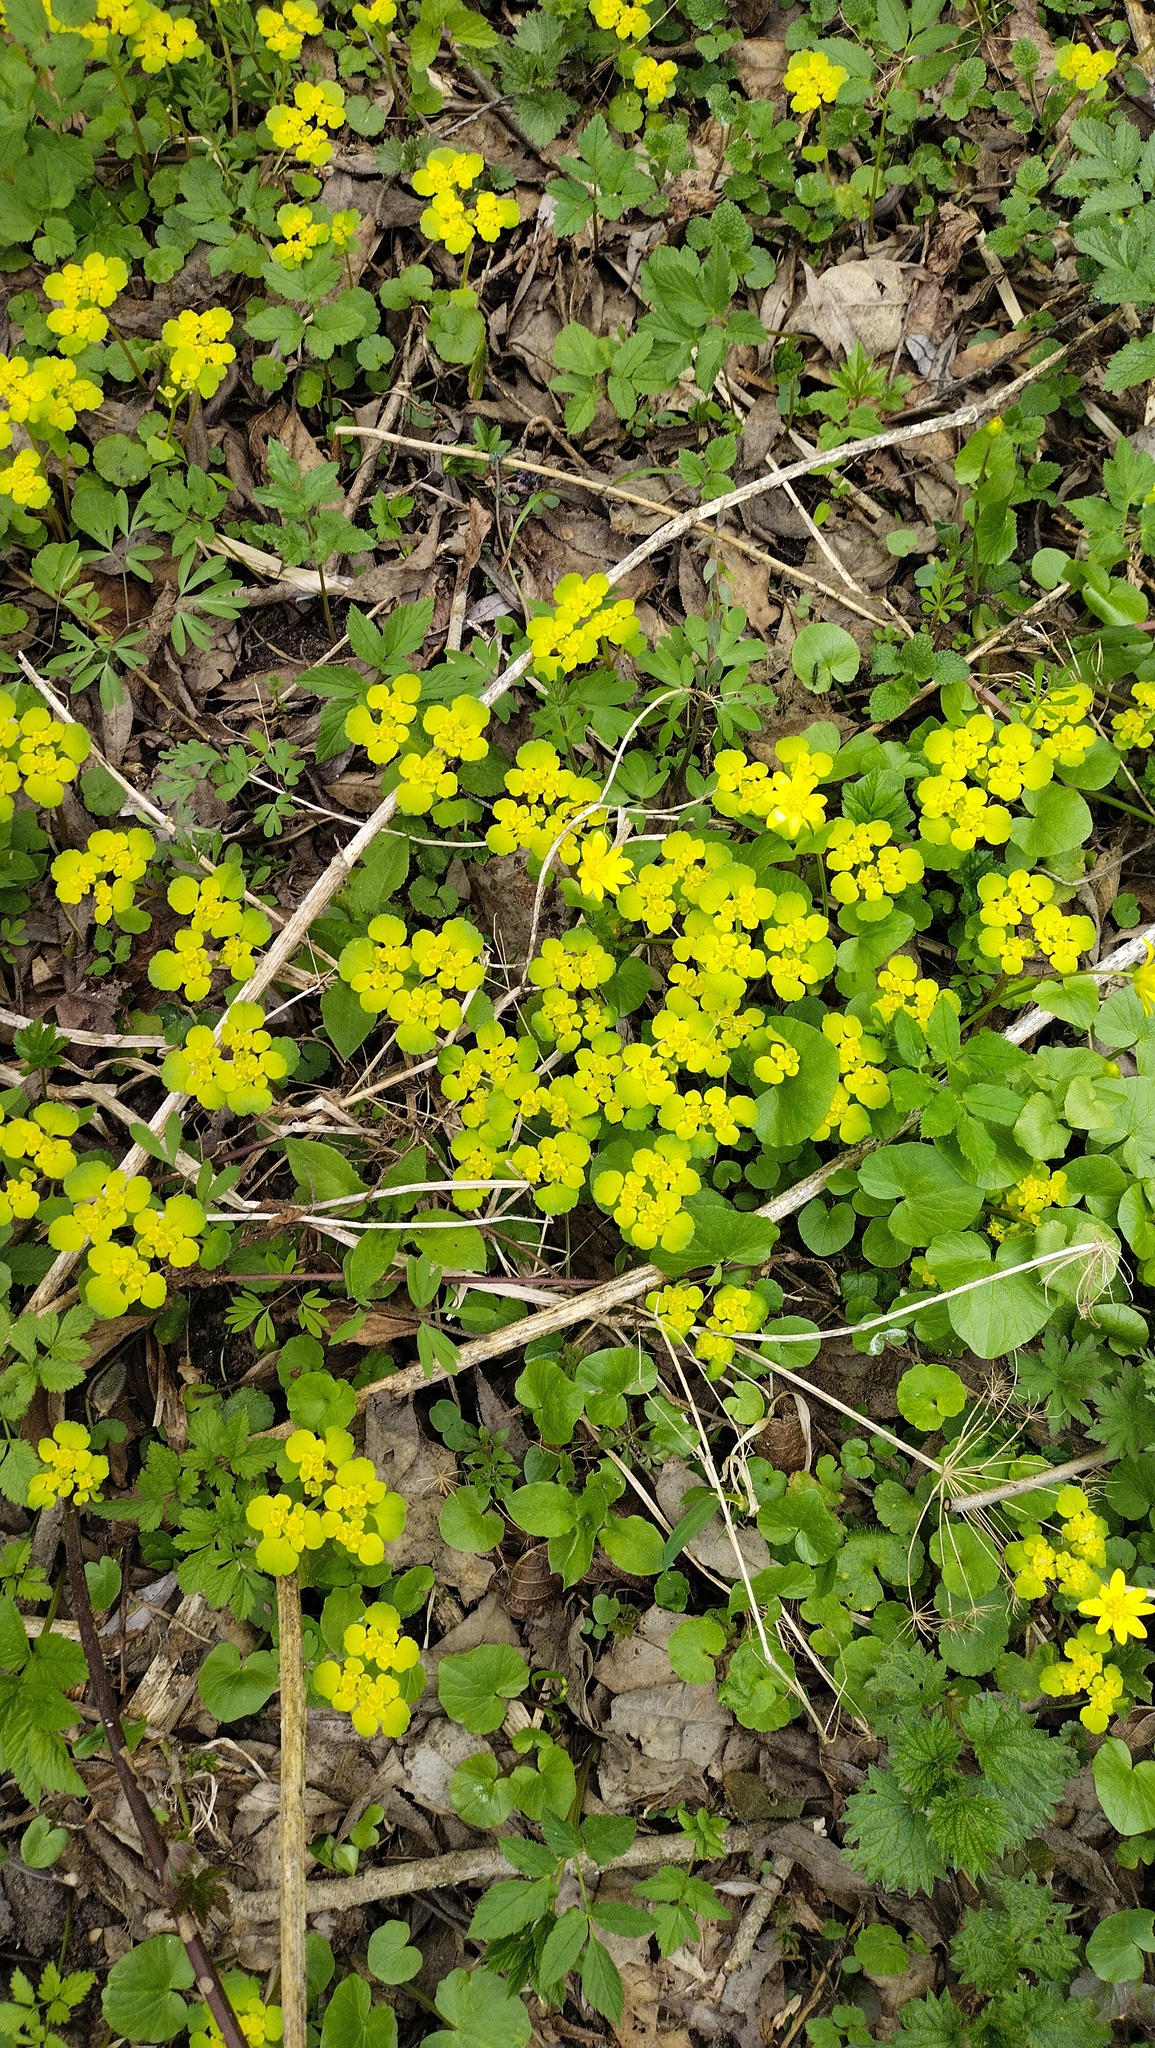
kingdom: Plantae
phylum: Tracheophyta
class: Magnoliopsida
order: Saxifragales
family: Saxifragaceae
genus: Chrysosplenium
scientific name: Chrysosplenium alternifolium
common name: Alternate-leaved golden-saxifrage
